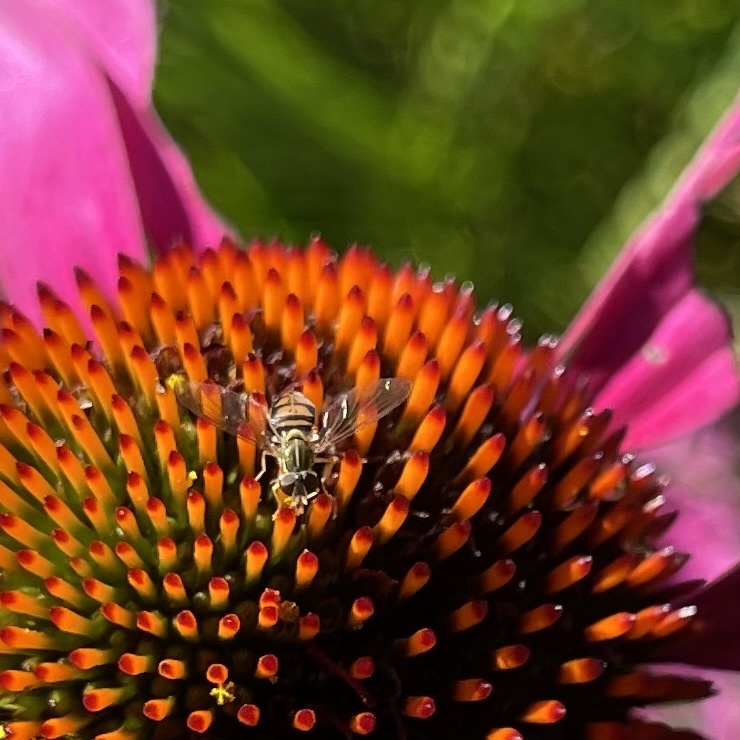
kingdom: Animalia
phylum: Arthropoda
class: Insecta
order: Diptera
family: Syrphidae
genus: Toxomerus
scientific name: Toxomerus marginatus
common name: Syrphid fly
